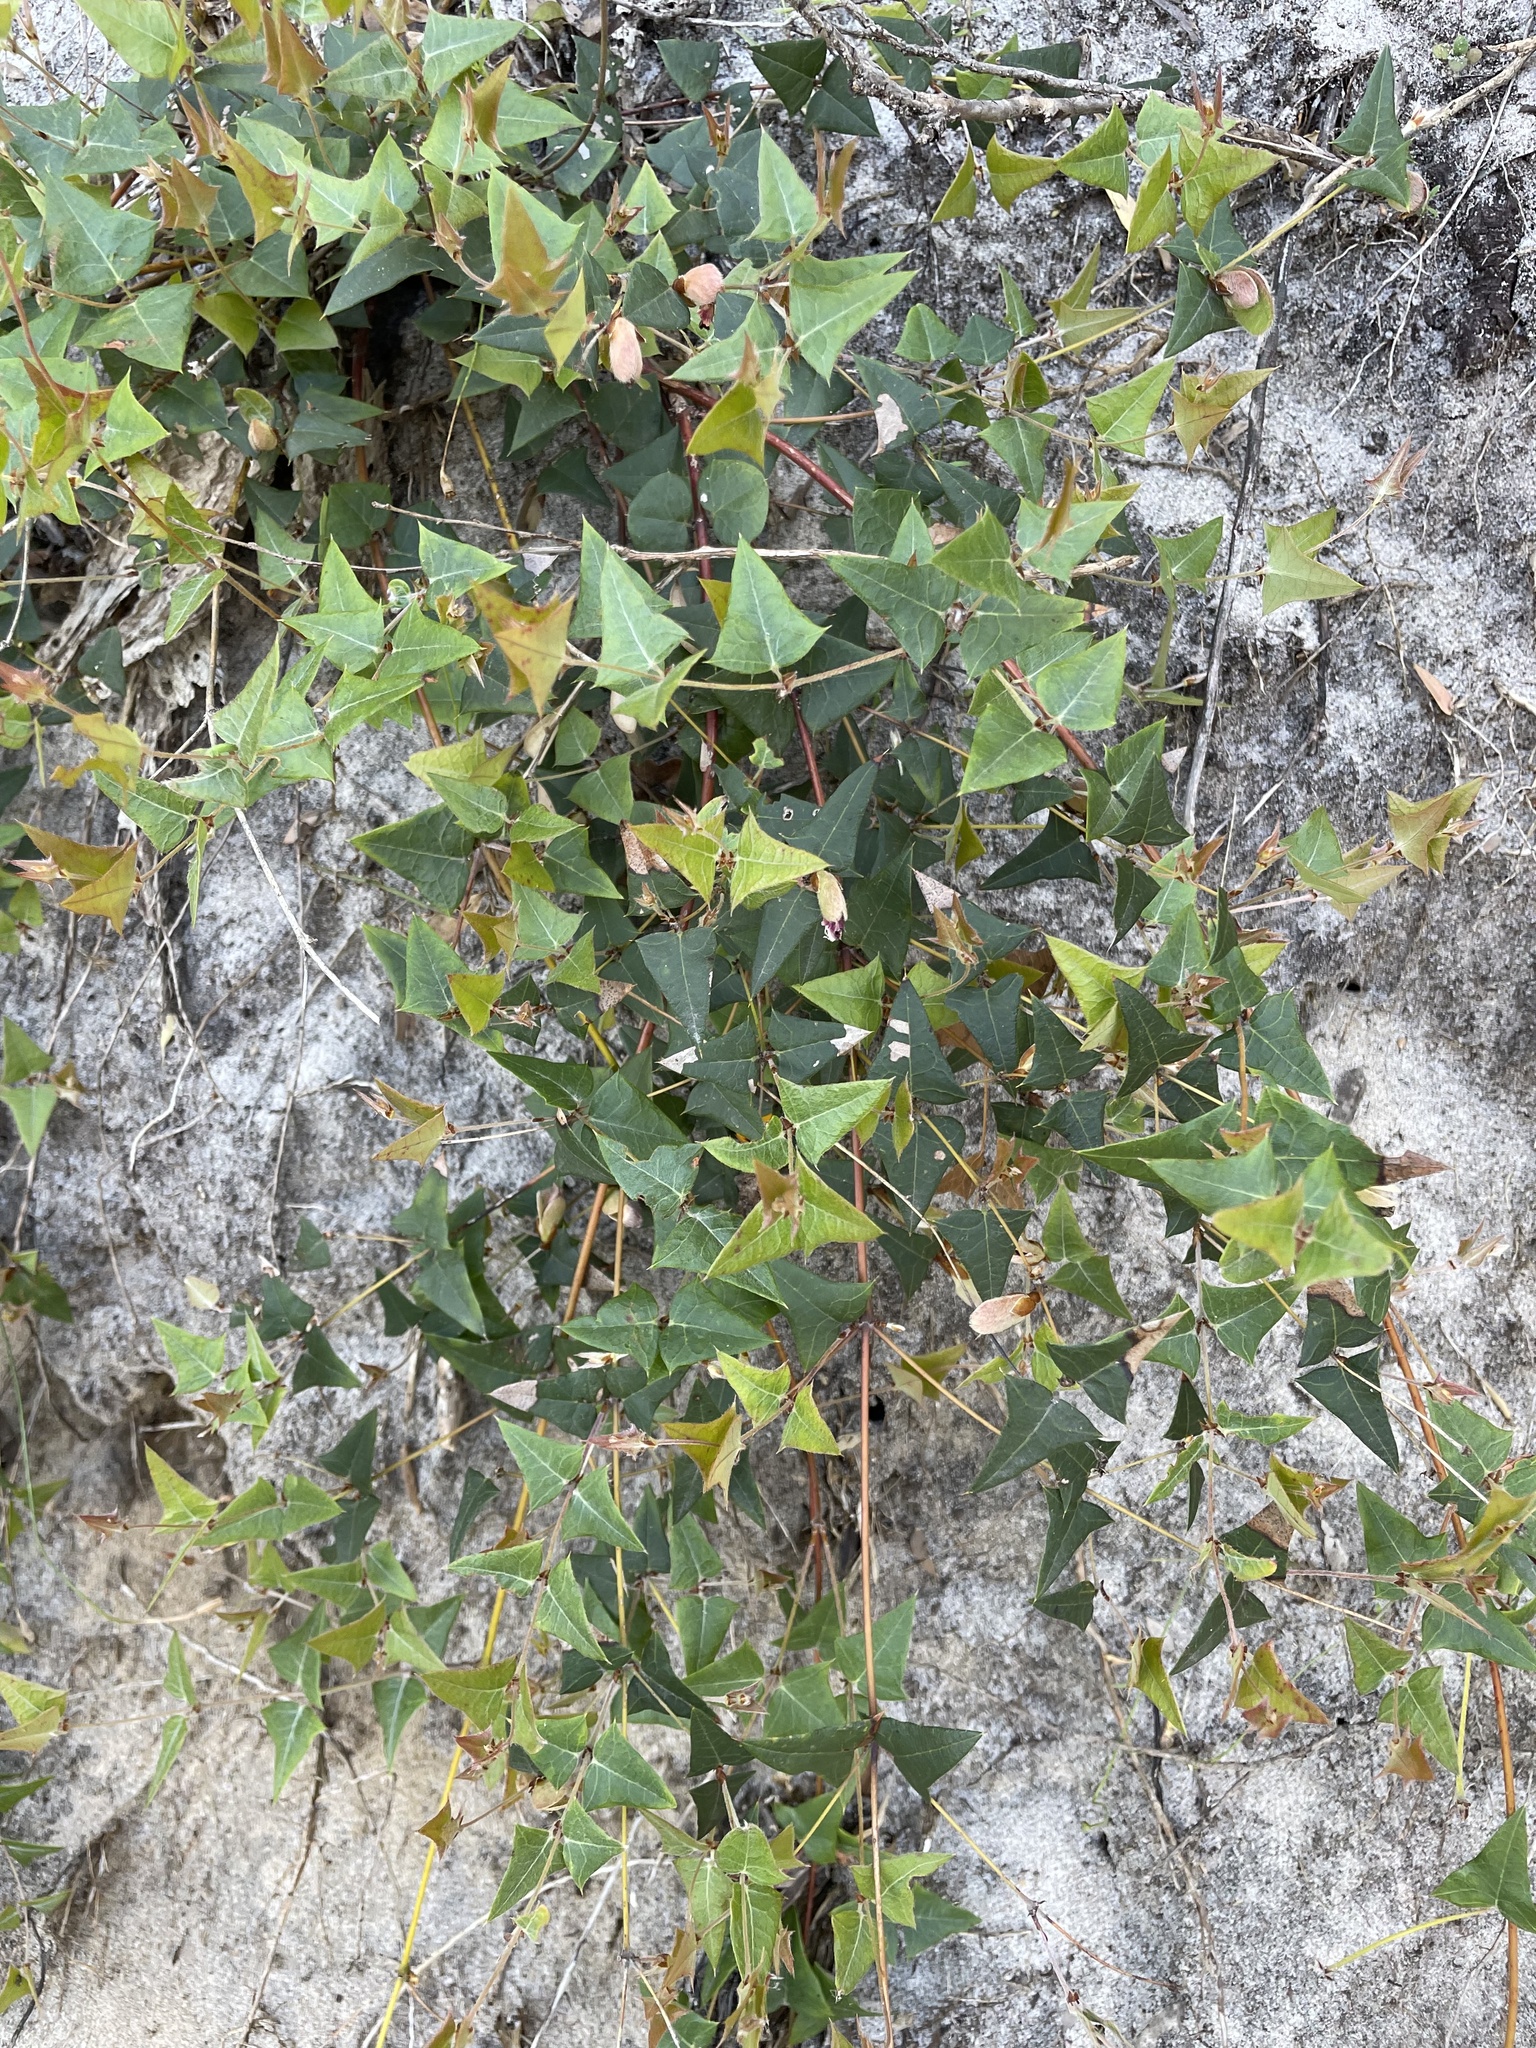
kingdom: Plantae
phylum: Tracheophyta
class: Magnoliopsida
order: Fabales
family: Fabaceae
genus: Platylobium
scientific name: Platylobium obtusangulum
